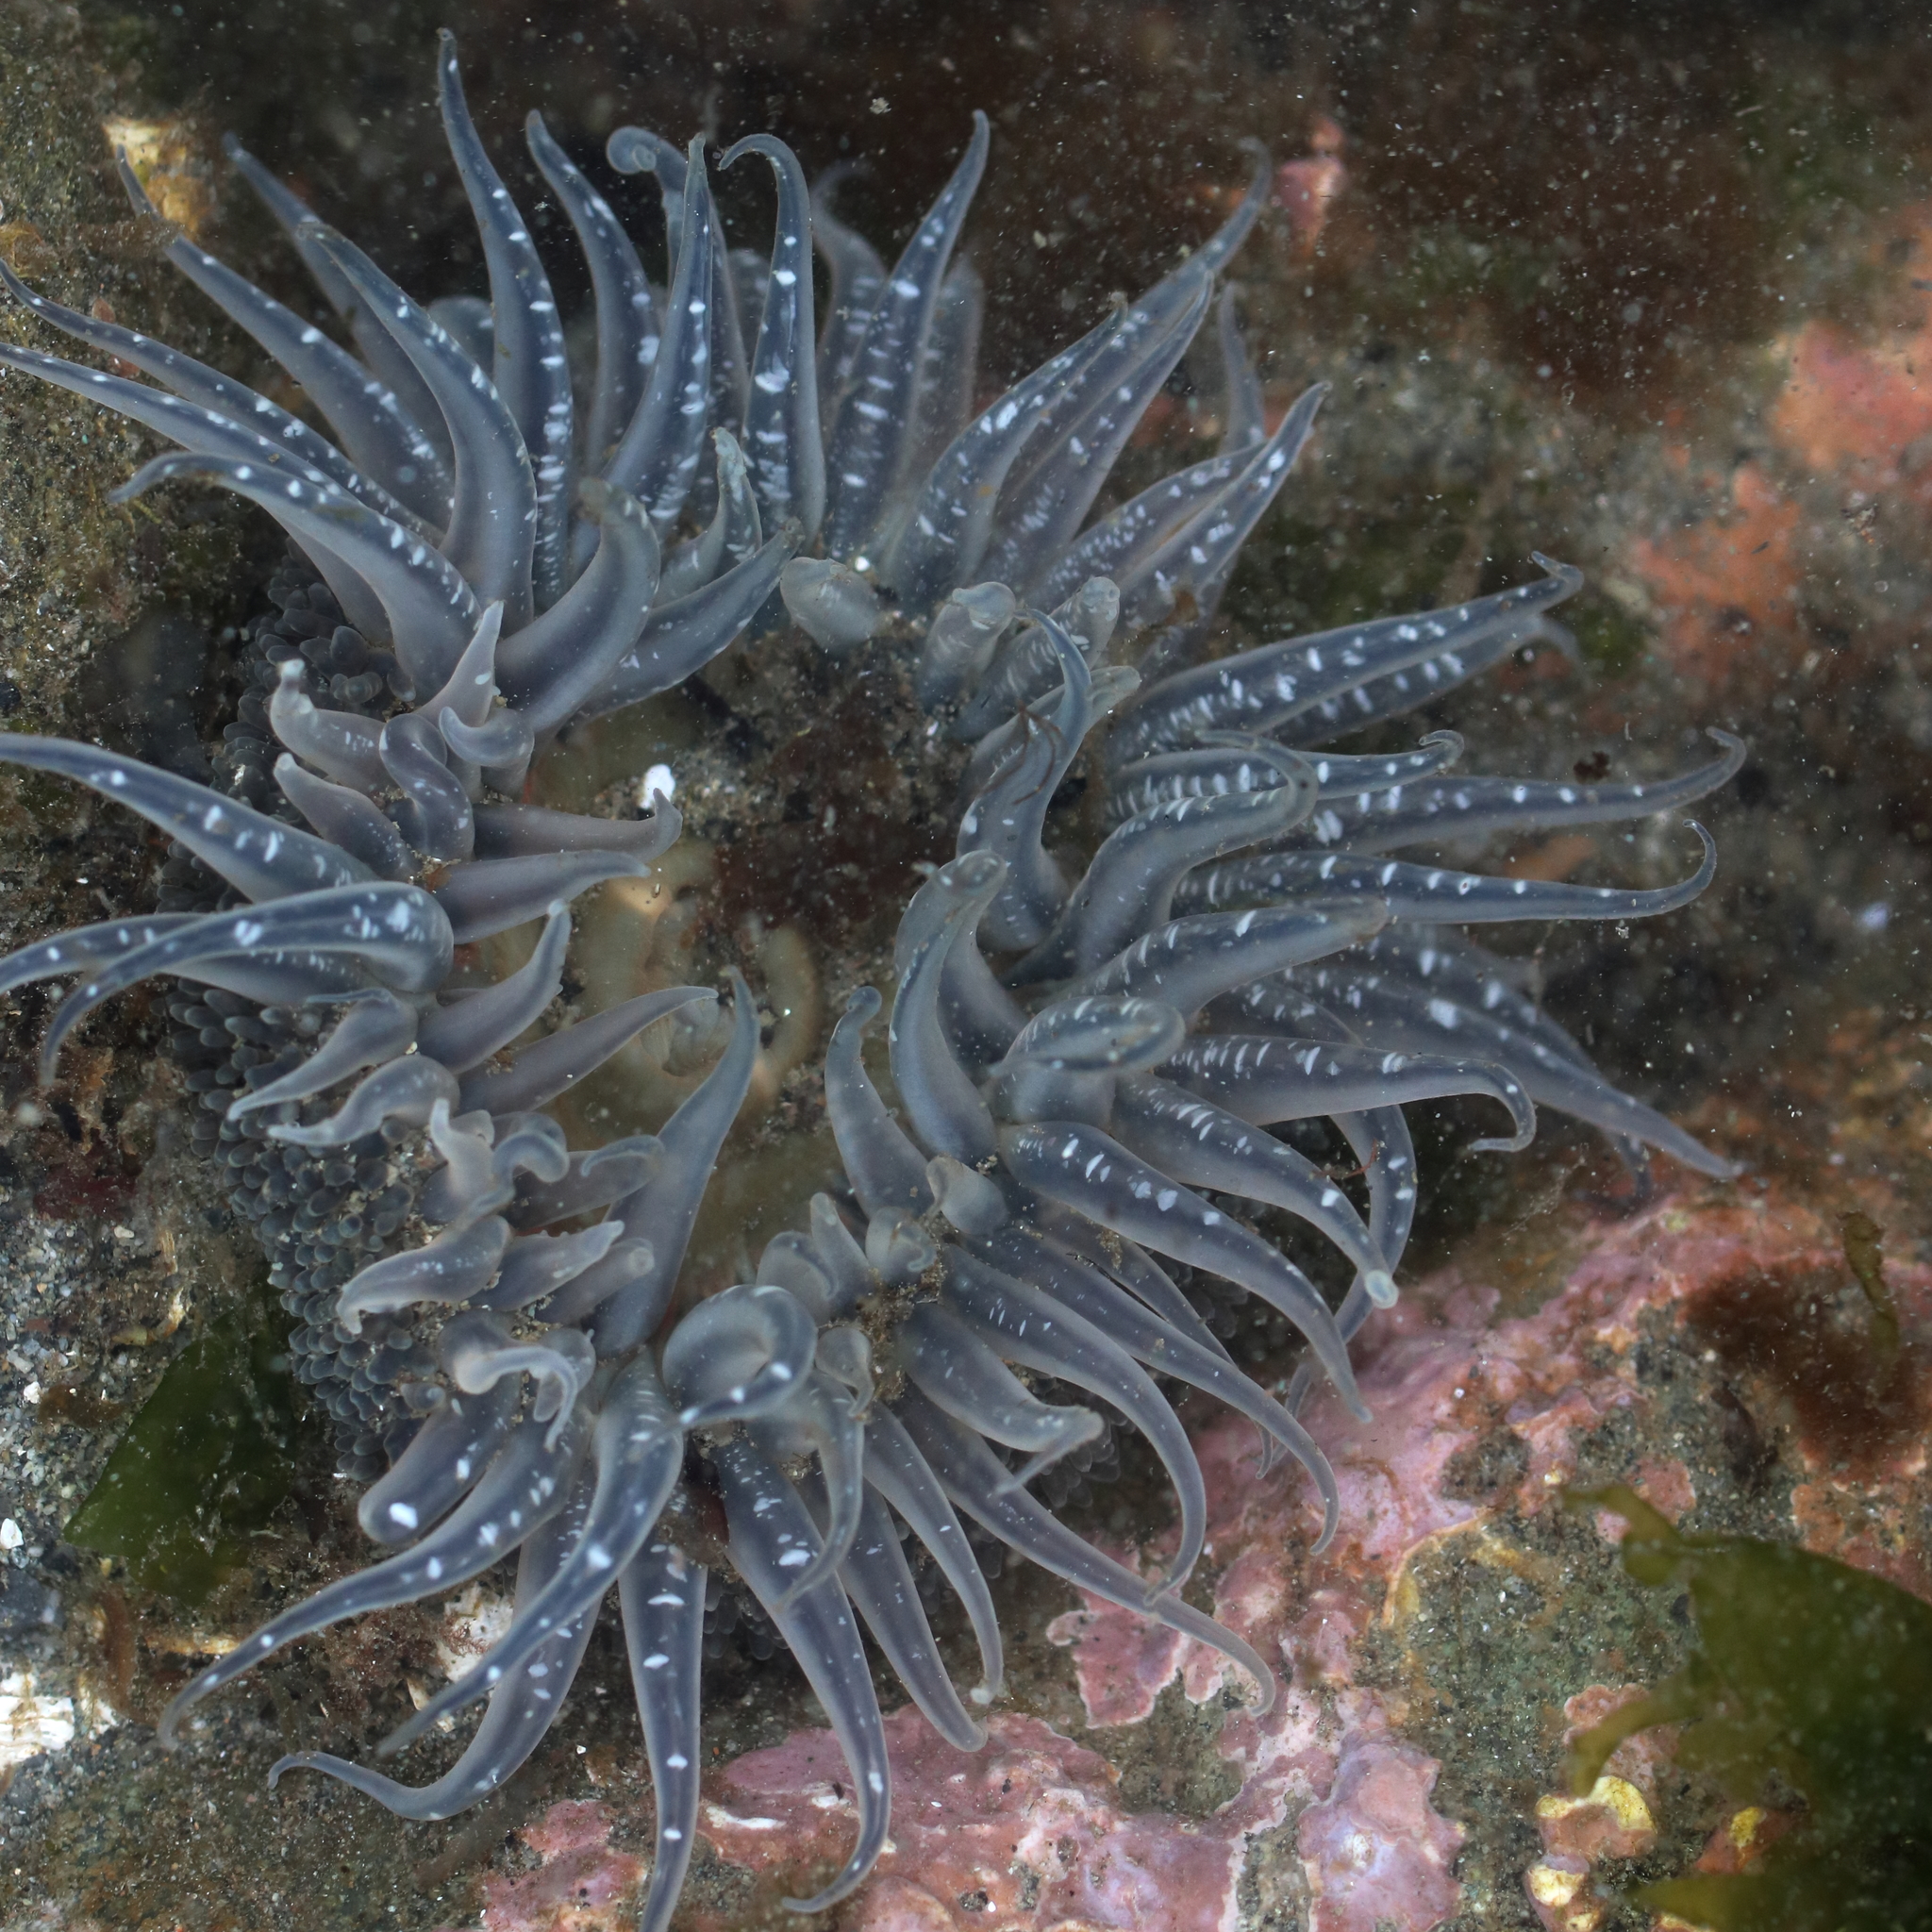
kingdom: Animalia
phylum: Cnidaria
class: Anthozoa
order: Actiniaria
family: Actiniidae
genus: Anthopleura
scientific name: Anthopleura artemisia
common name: Buried sea anemone
